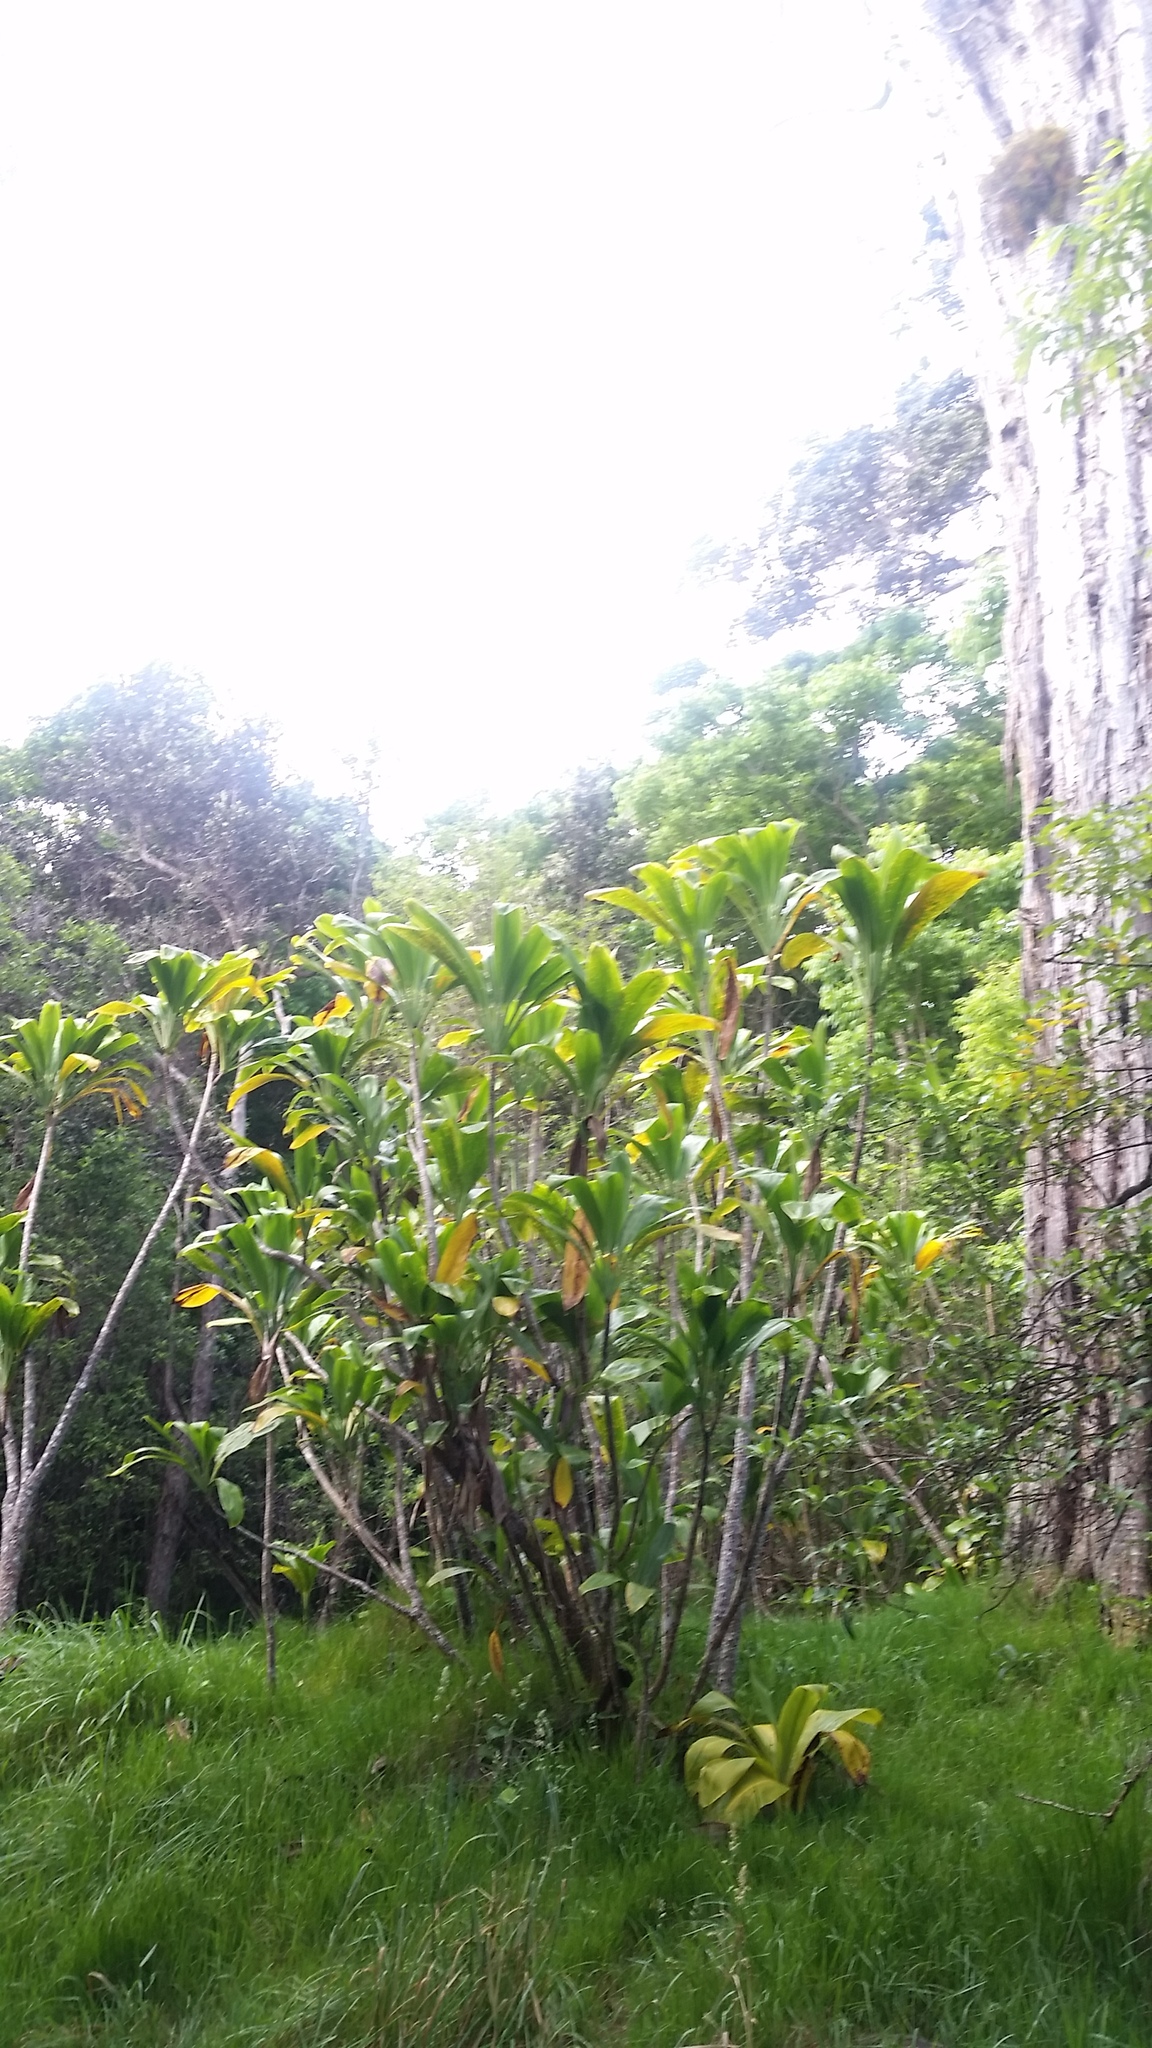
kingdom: Plantae
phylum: Tracheophyta
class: Liliopsida
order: Asparagales
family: Asparagaceae
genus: Cordyline
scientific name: Cordyline fruticosa
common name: Good-luck-plant
